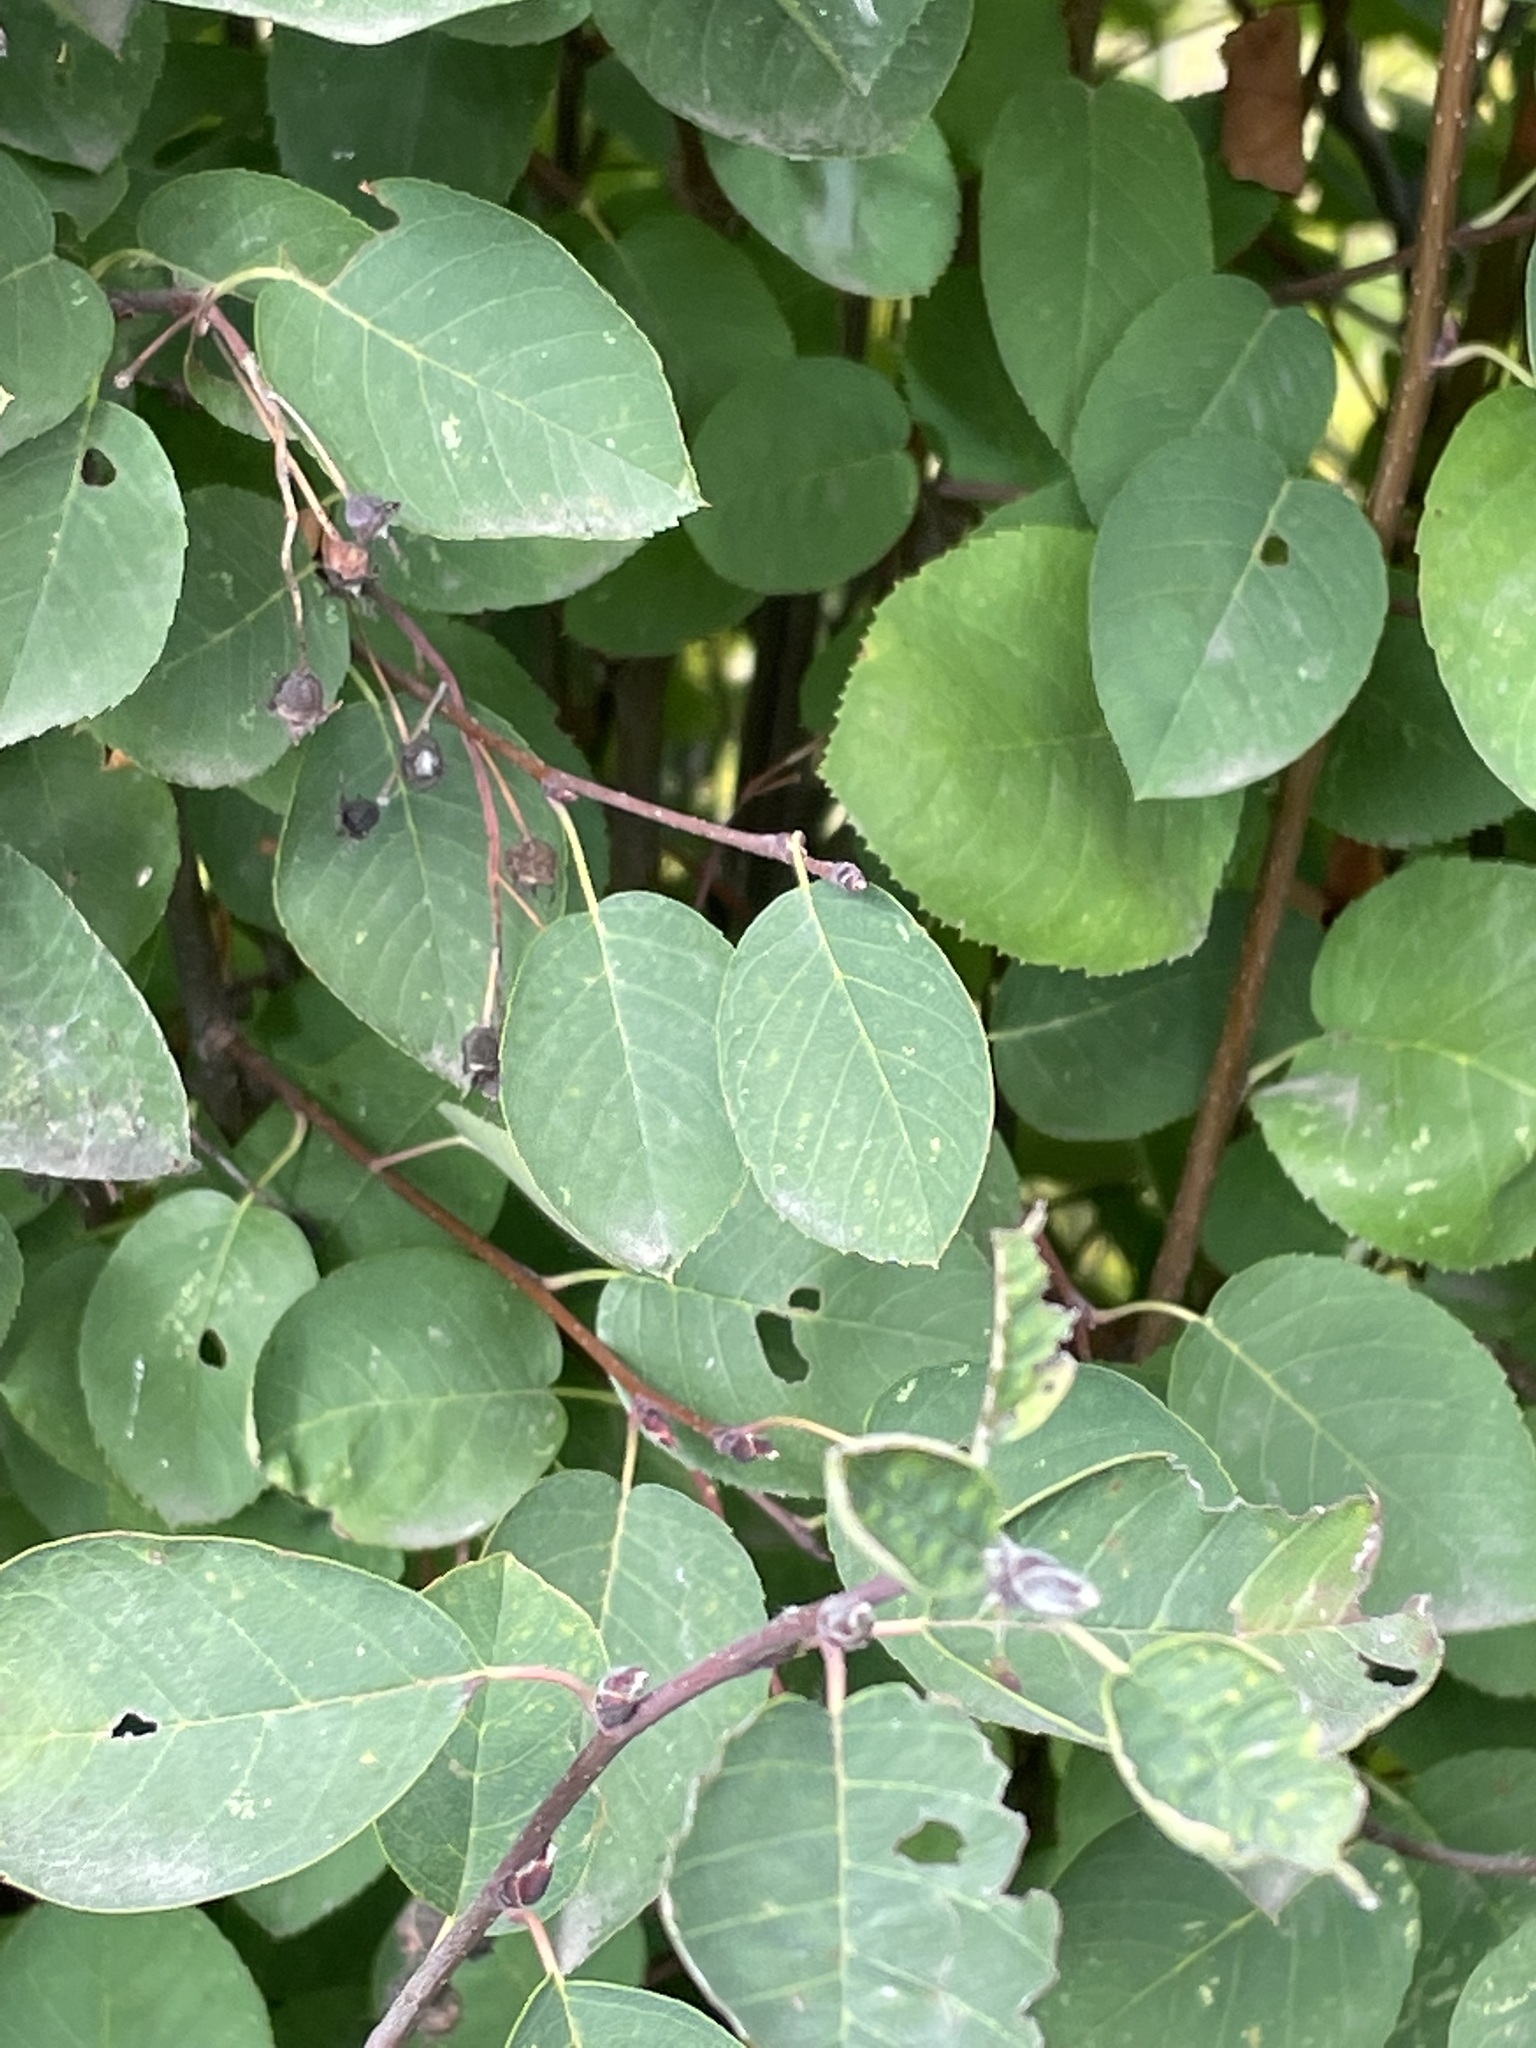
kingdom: Plantae
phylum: Tracheophyta
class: Magnoliopsida
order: Rosales
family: Rosaceae
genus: Amelanchier
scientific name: Amelanchier
